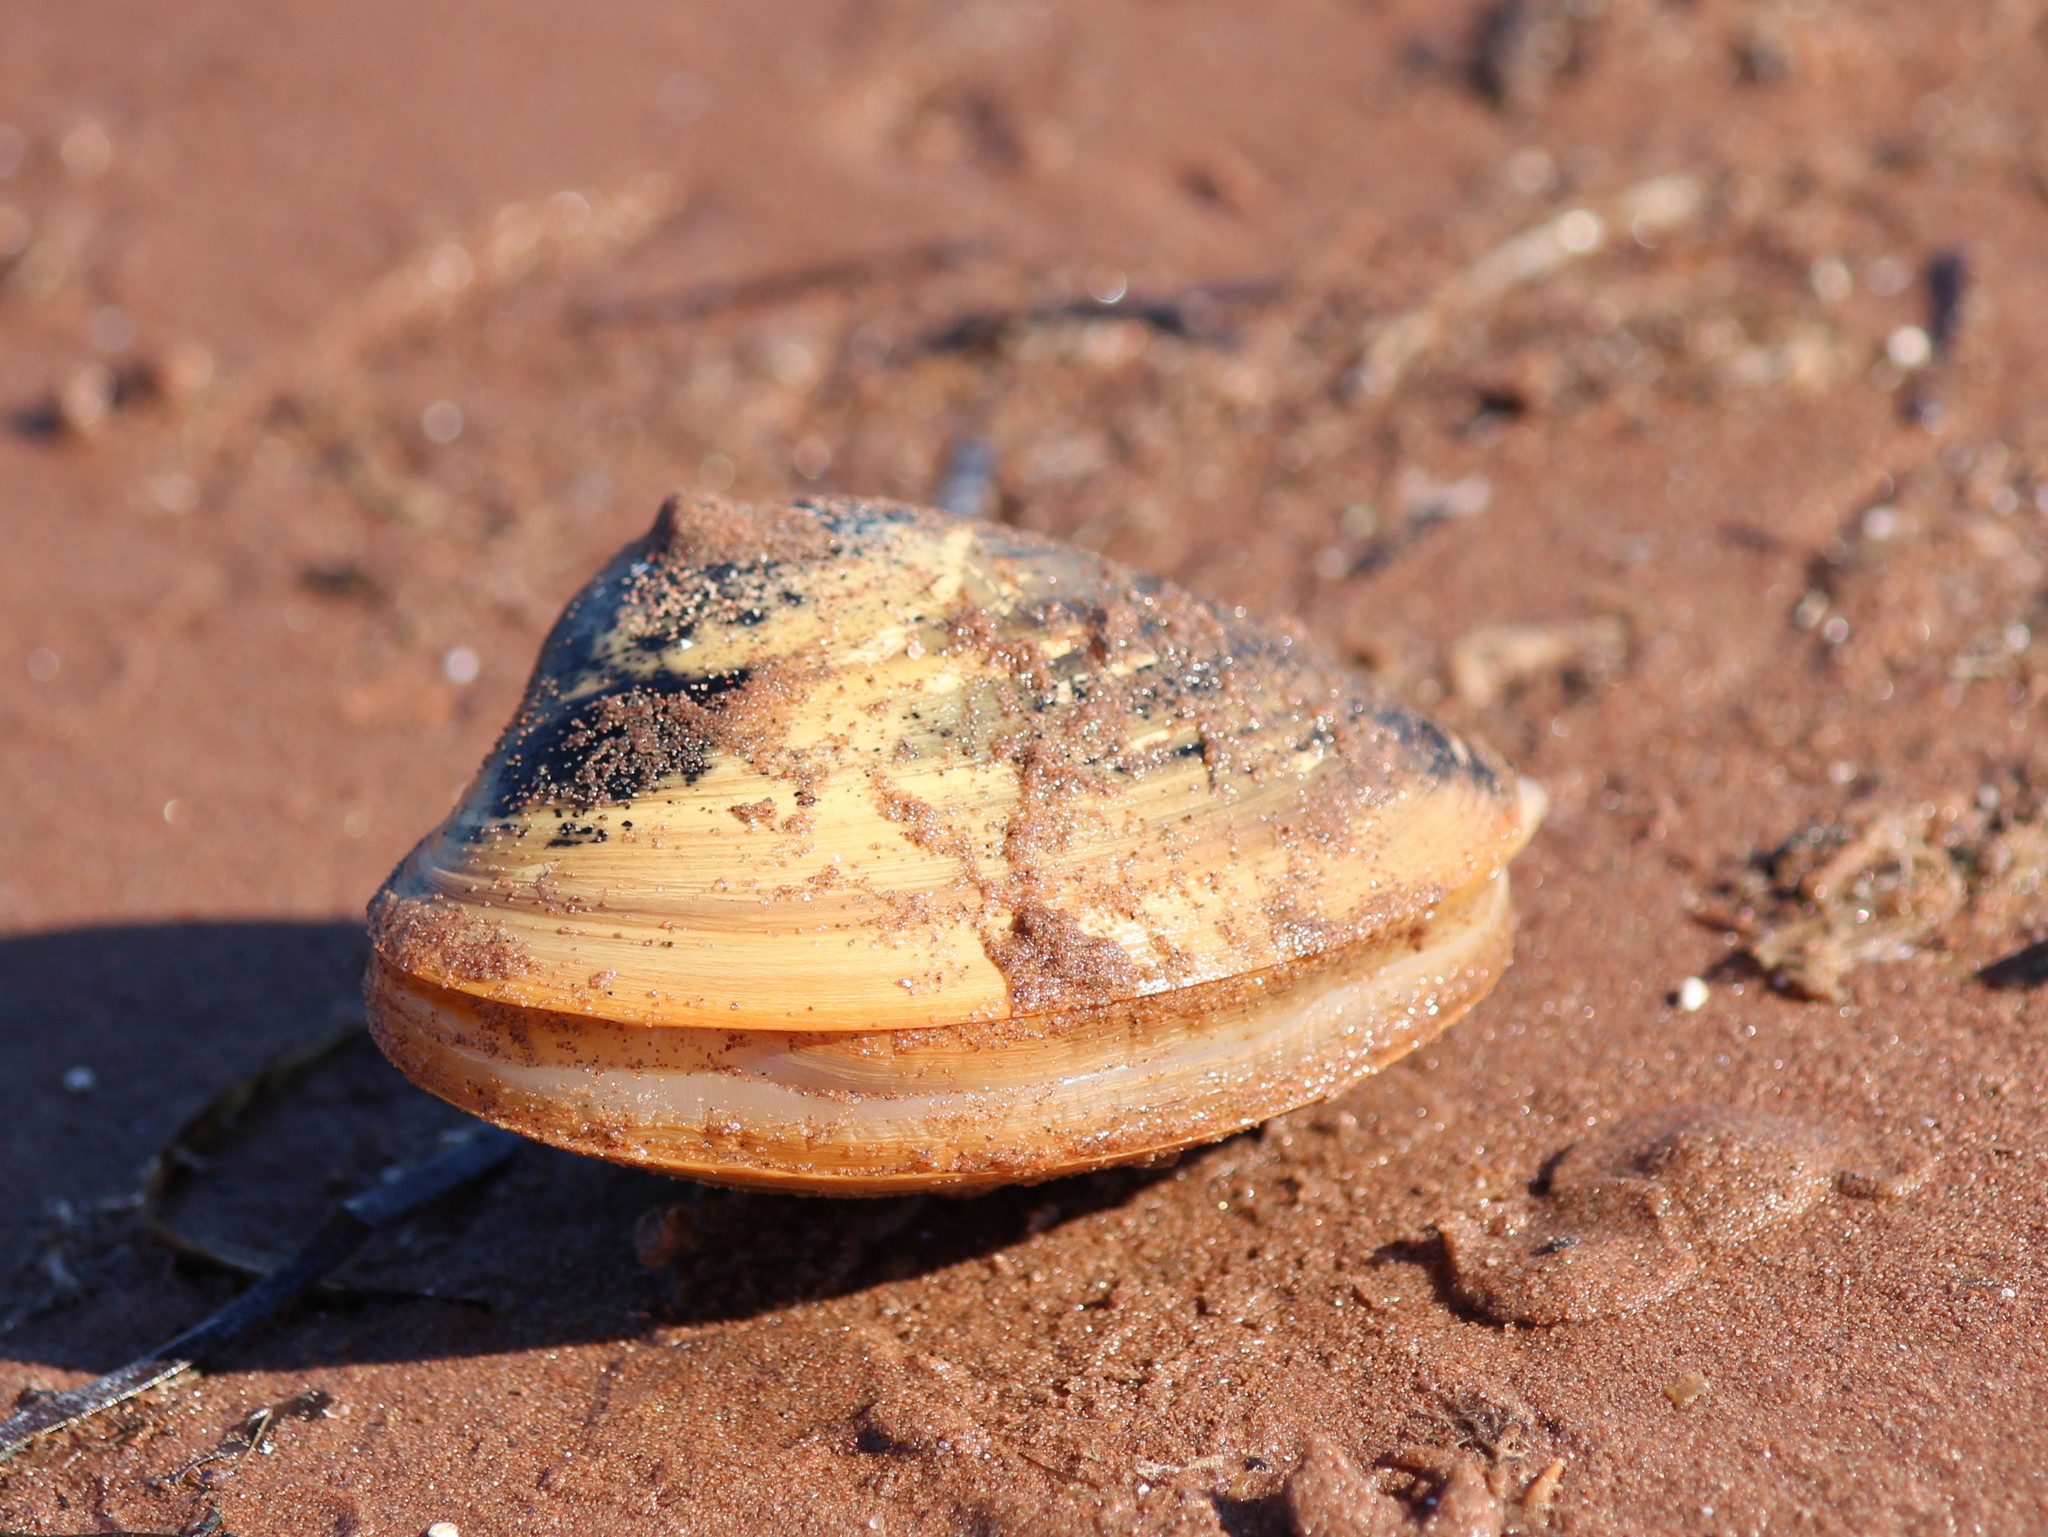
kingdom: Animalia
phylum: Mollusca
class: Bivalvia
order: Venerida
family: Mactridae
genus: Spisula
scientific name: Spisula solidissima
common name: Atlantic surf clam
